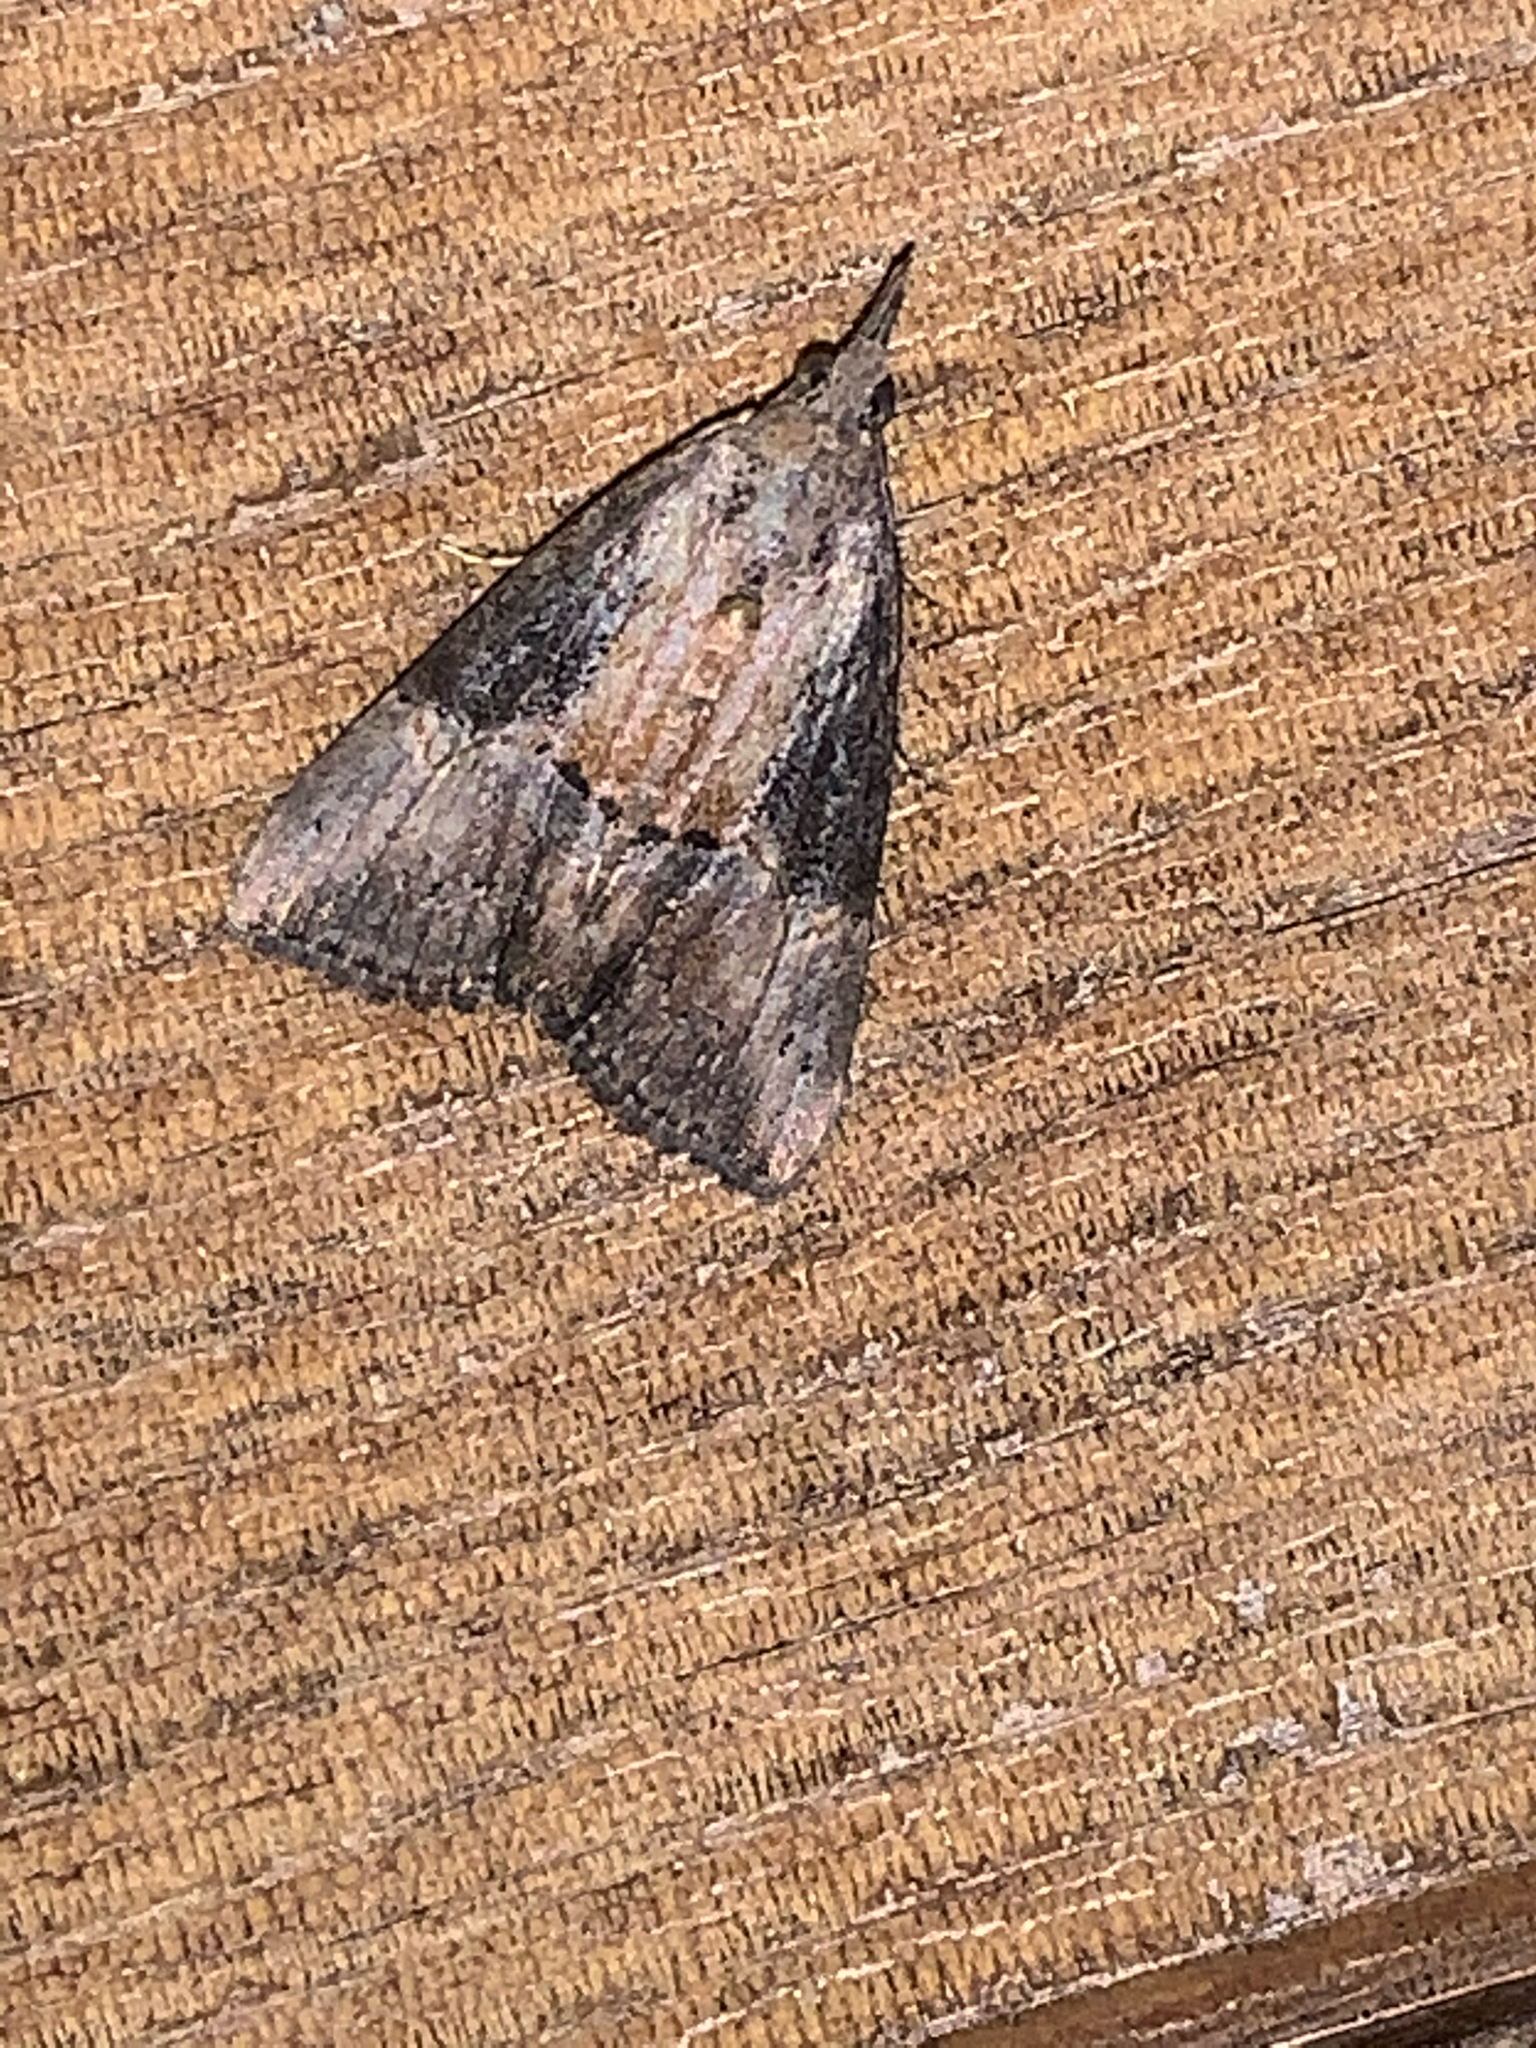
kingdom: Animalia
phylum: Arthropoda
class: Insecta
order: Lepidoptera
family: Erebidae
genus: Hypena
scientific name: Hypena scabra
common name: Green cloverworm
